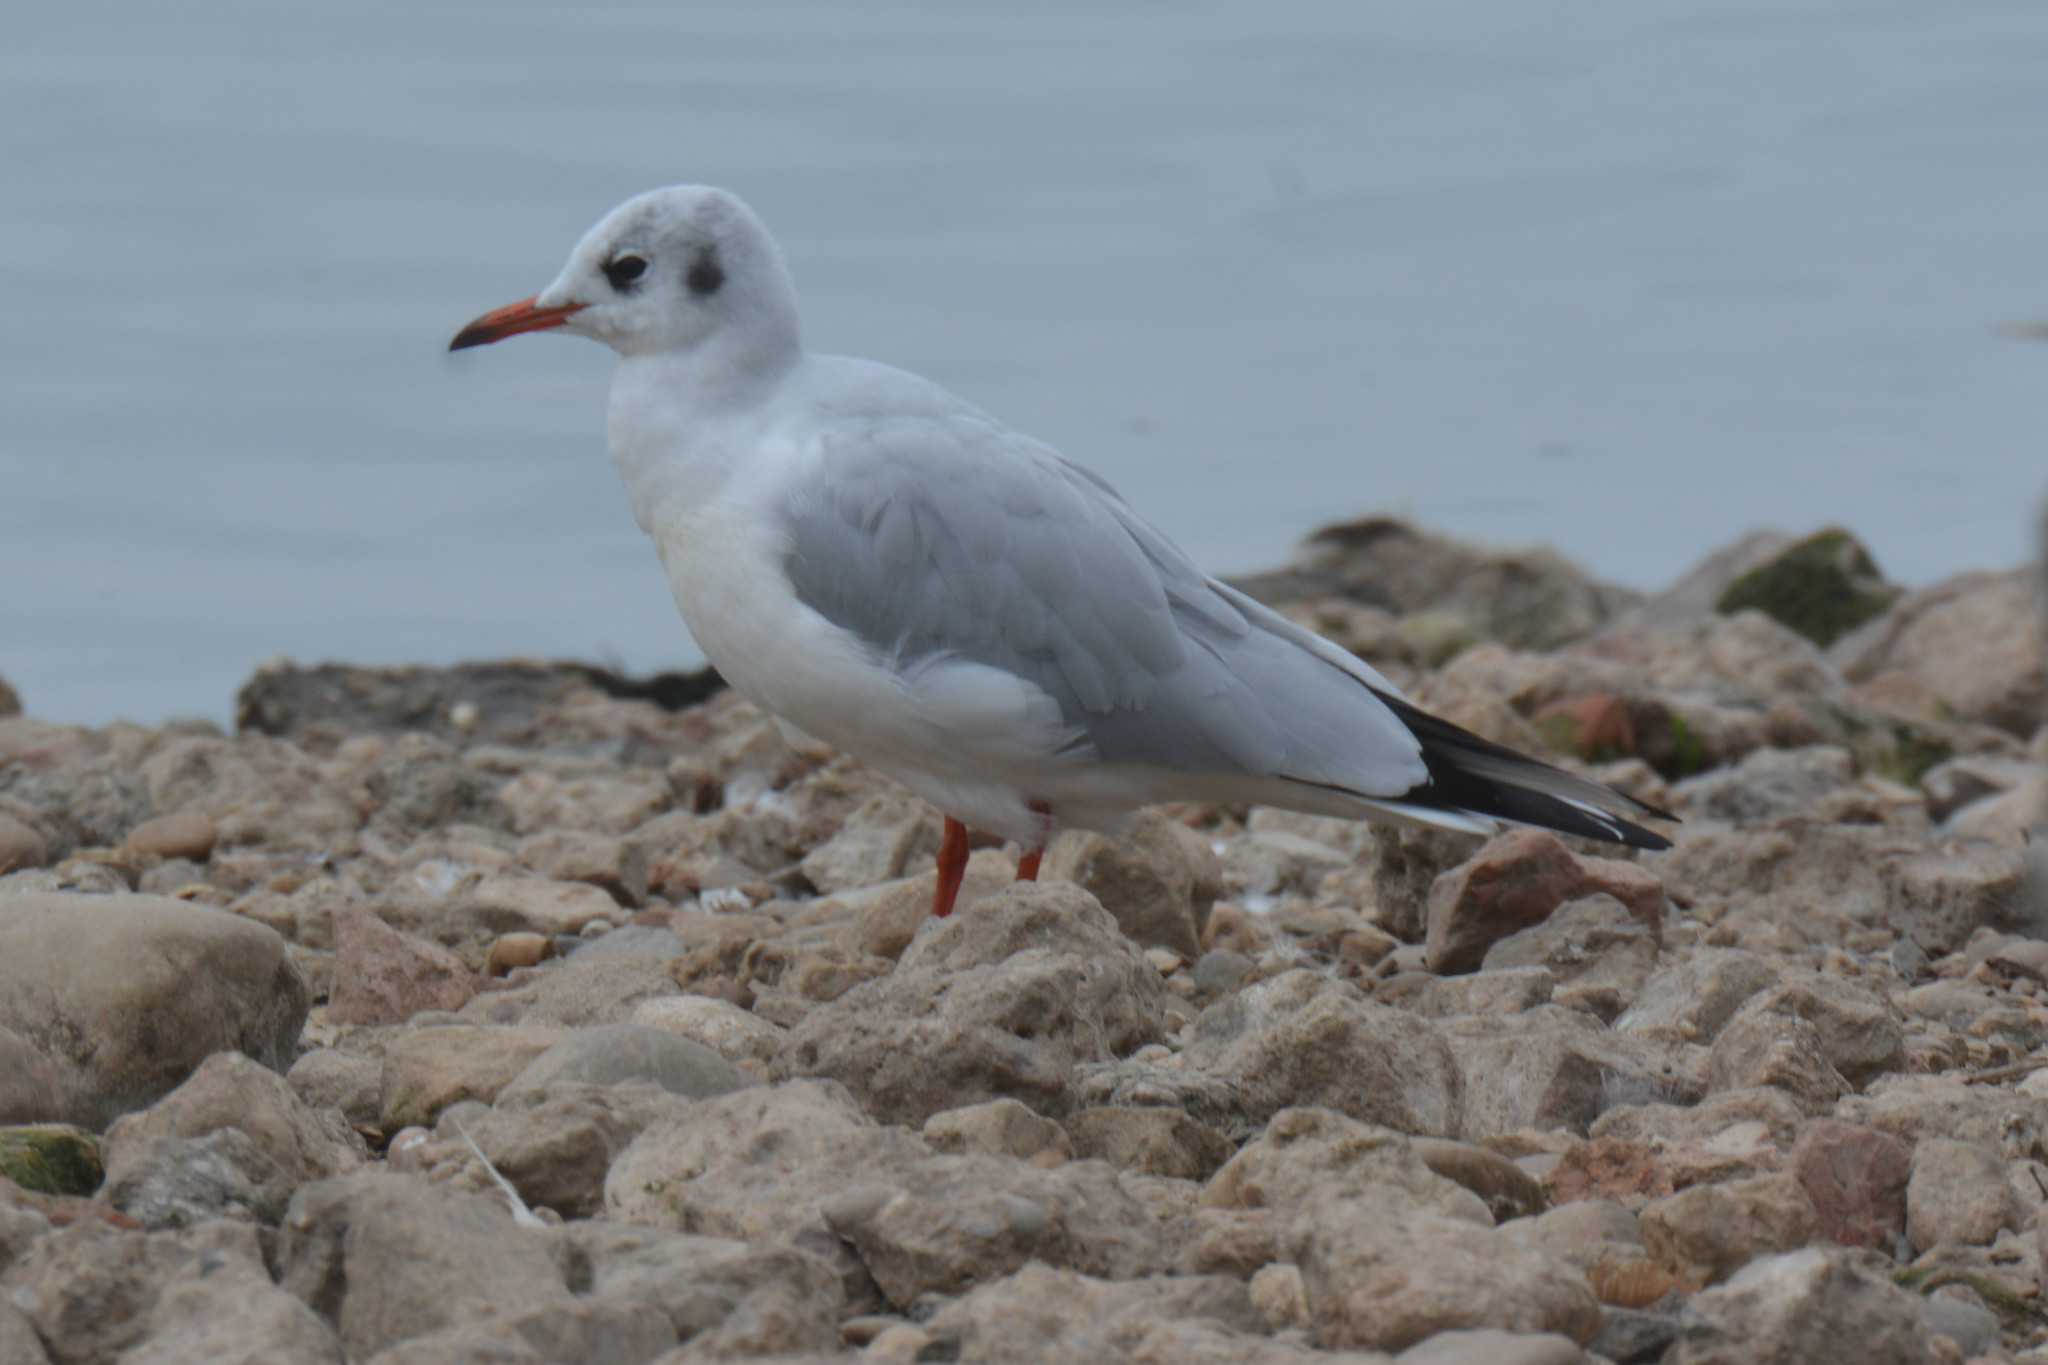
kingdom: Animalia
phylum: Chordata
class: Aves
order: Charadriiformes
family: Laridae
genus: Chroicocephalus
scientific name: Chroicocephalus ridibundus
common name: Black-headed gull
